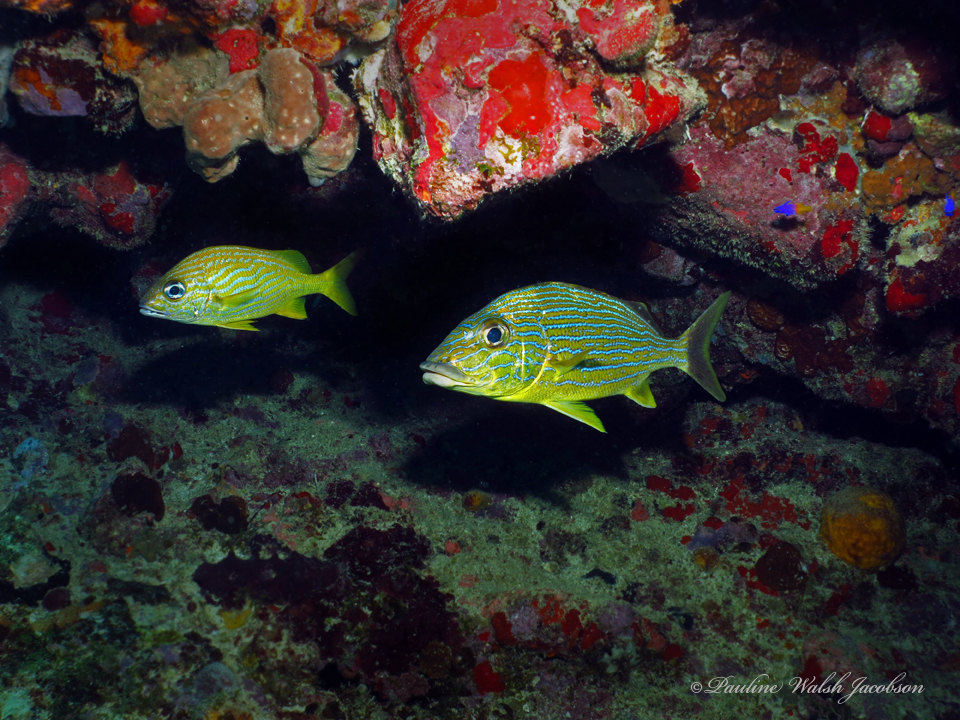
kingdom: Animalia
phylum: Chordata
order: Perciformes
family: Haemulidae
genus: Haemulon
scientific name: Haemulon flavolineatum
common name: French grunt
